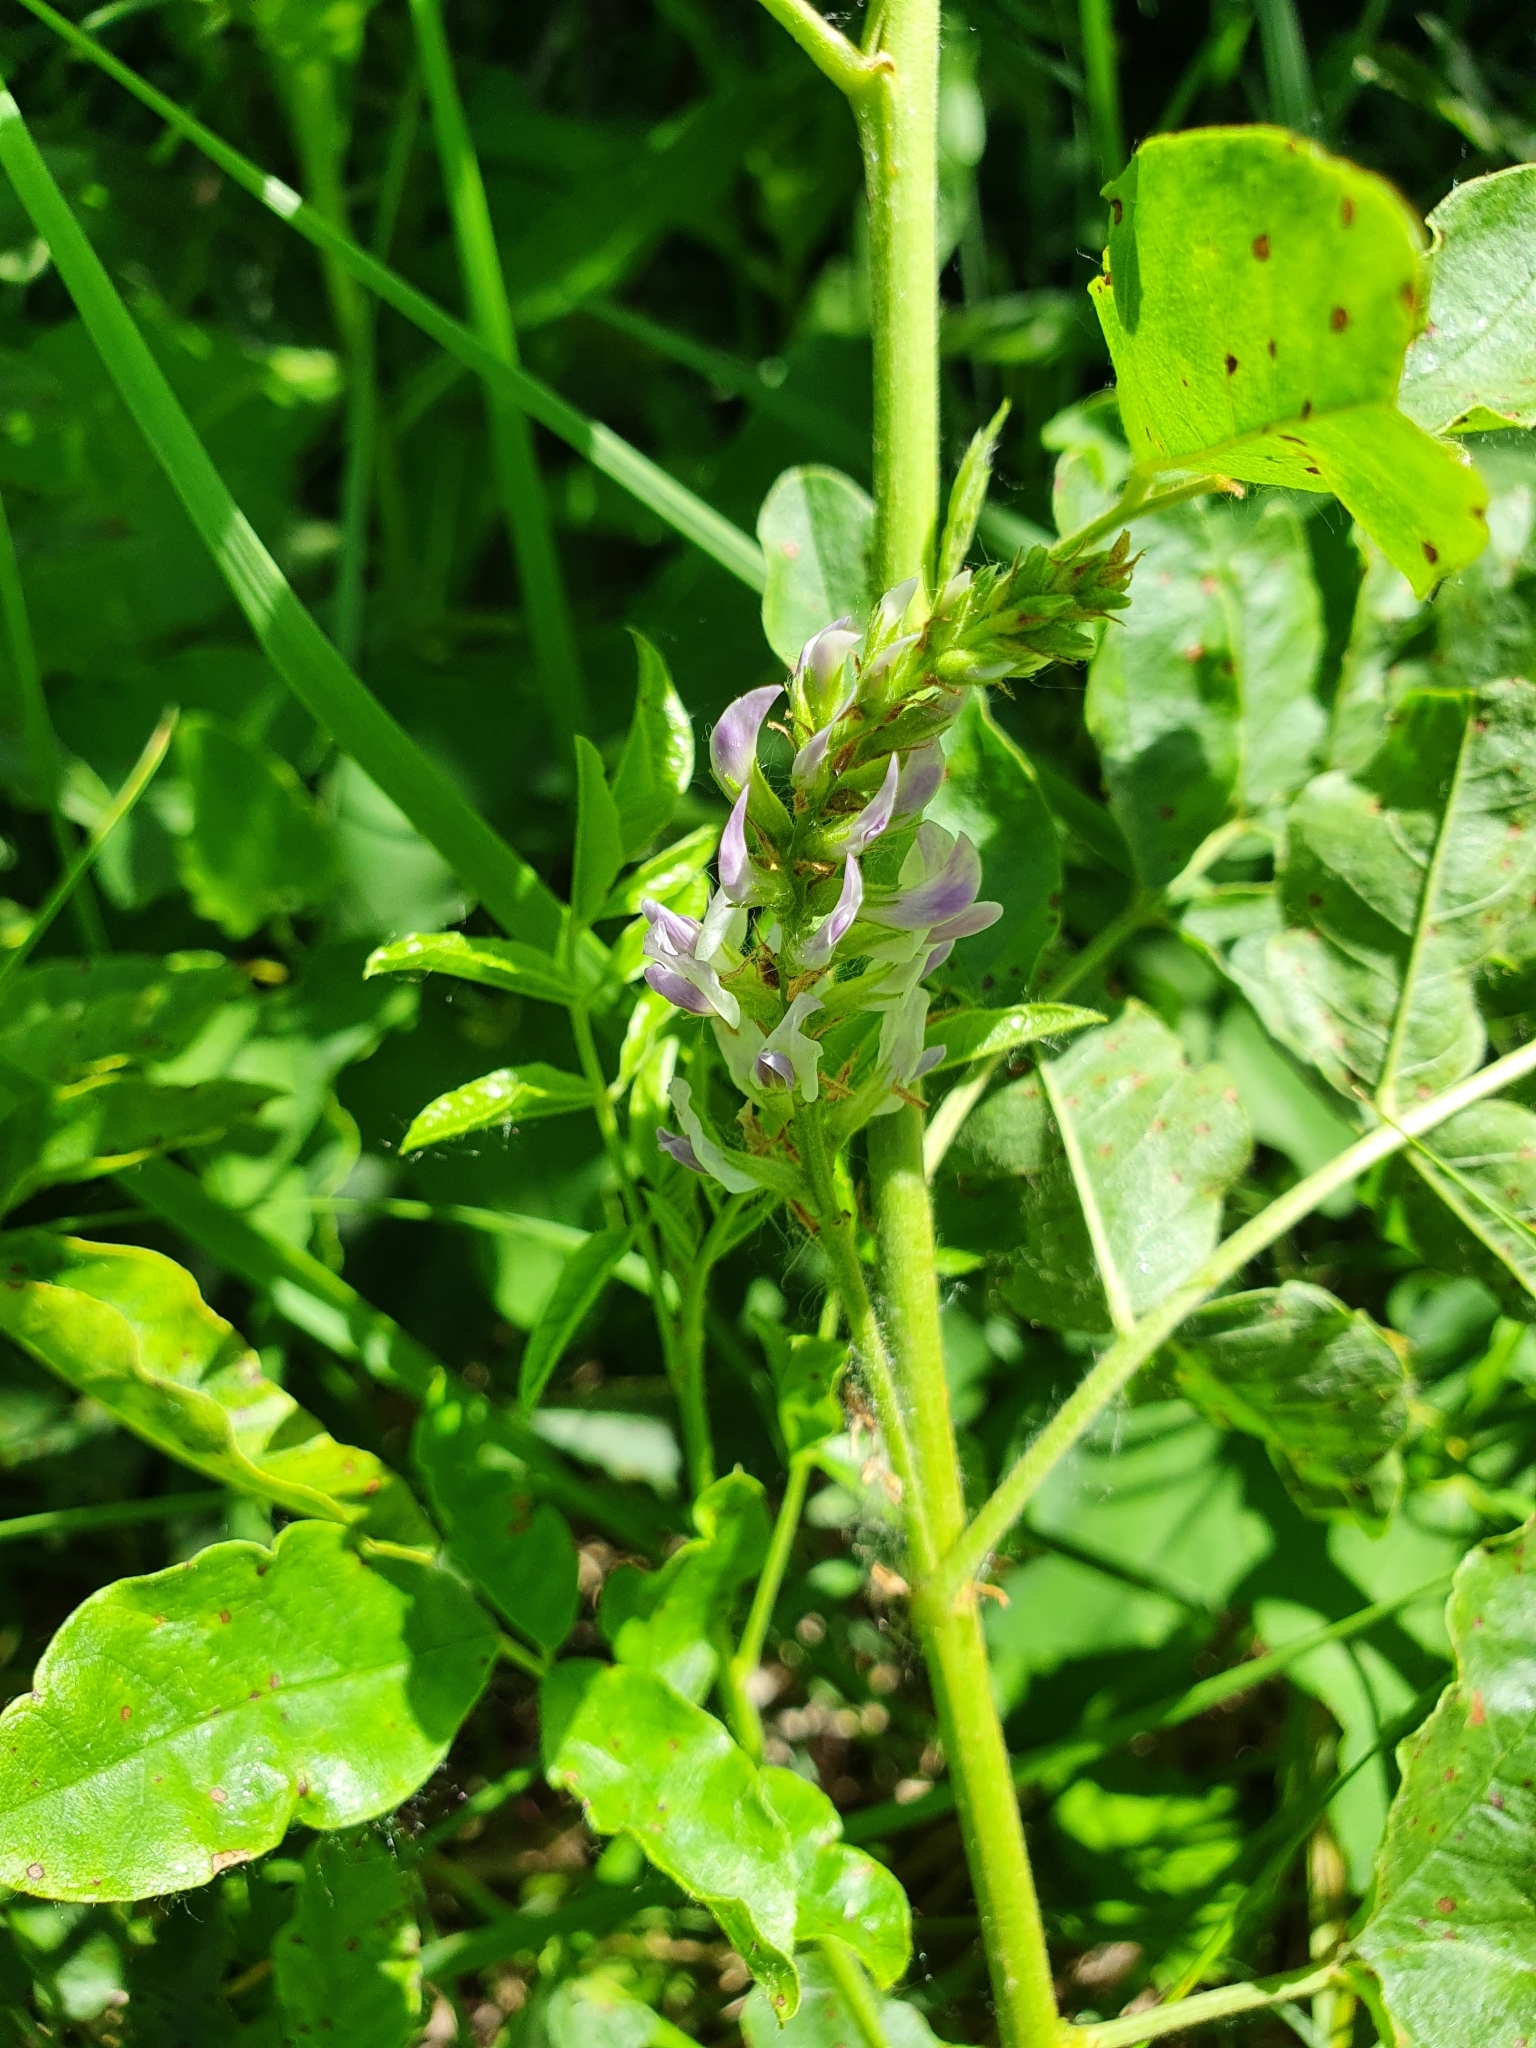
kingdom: Plantae
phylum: Tracheophyta
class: Magnoliopsida
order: Fabales
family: Fabaceae
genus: Glycyrrhiza
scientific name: Glycyrrhiza glabra
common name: Liquorice
